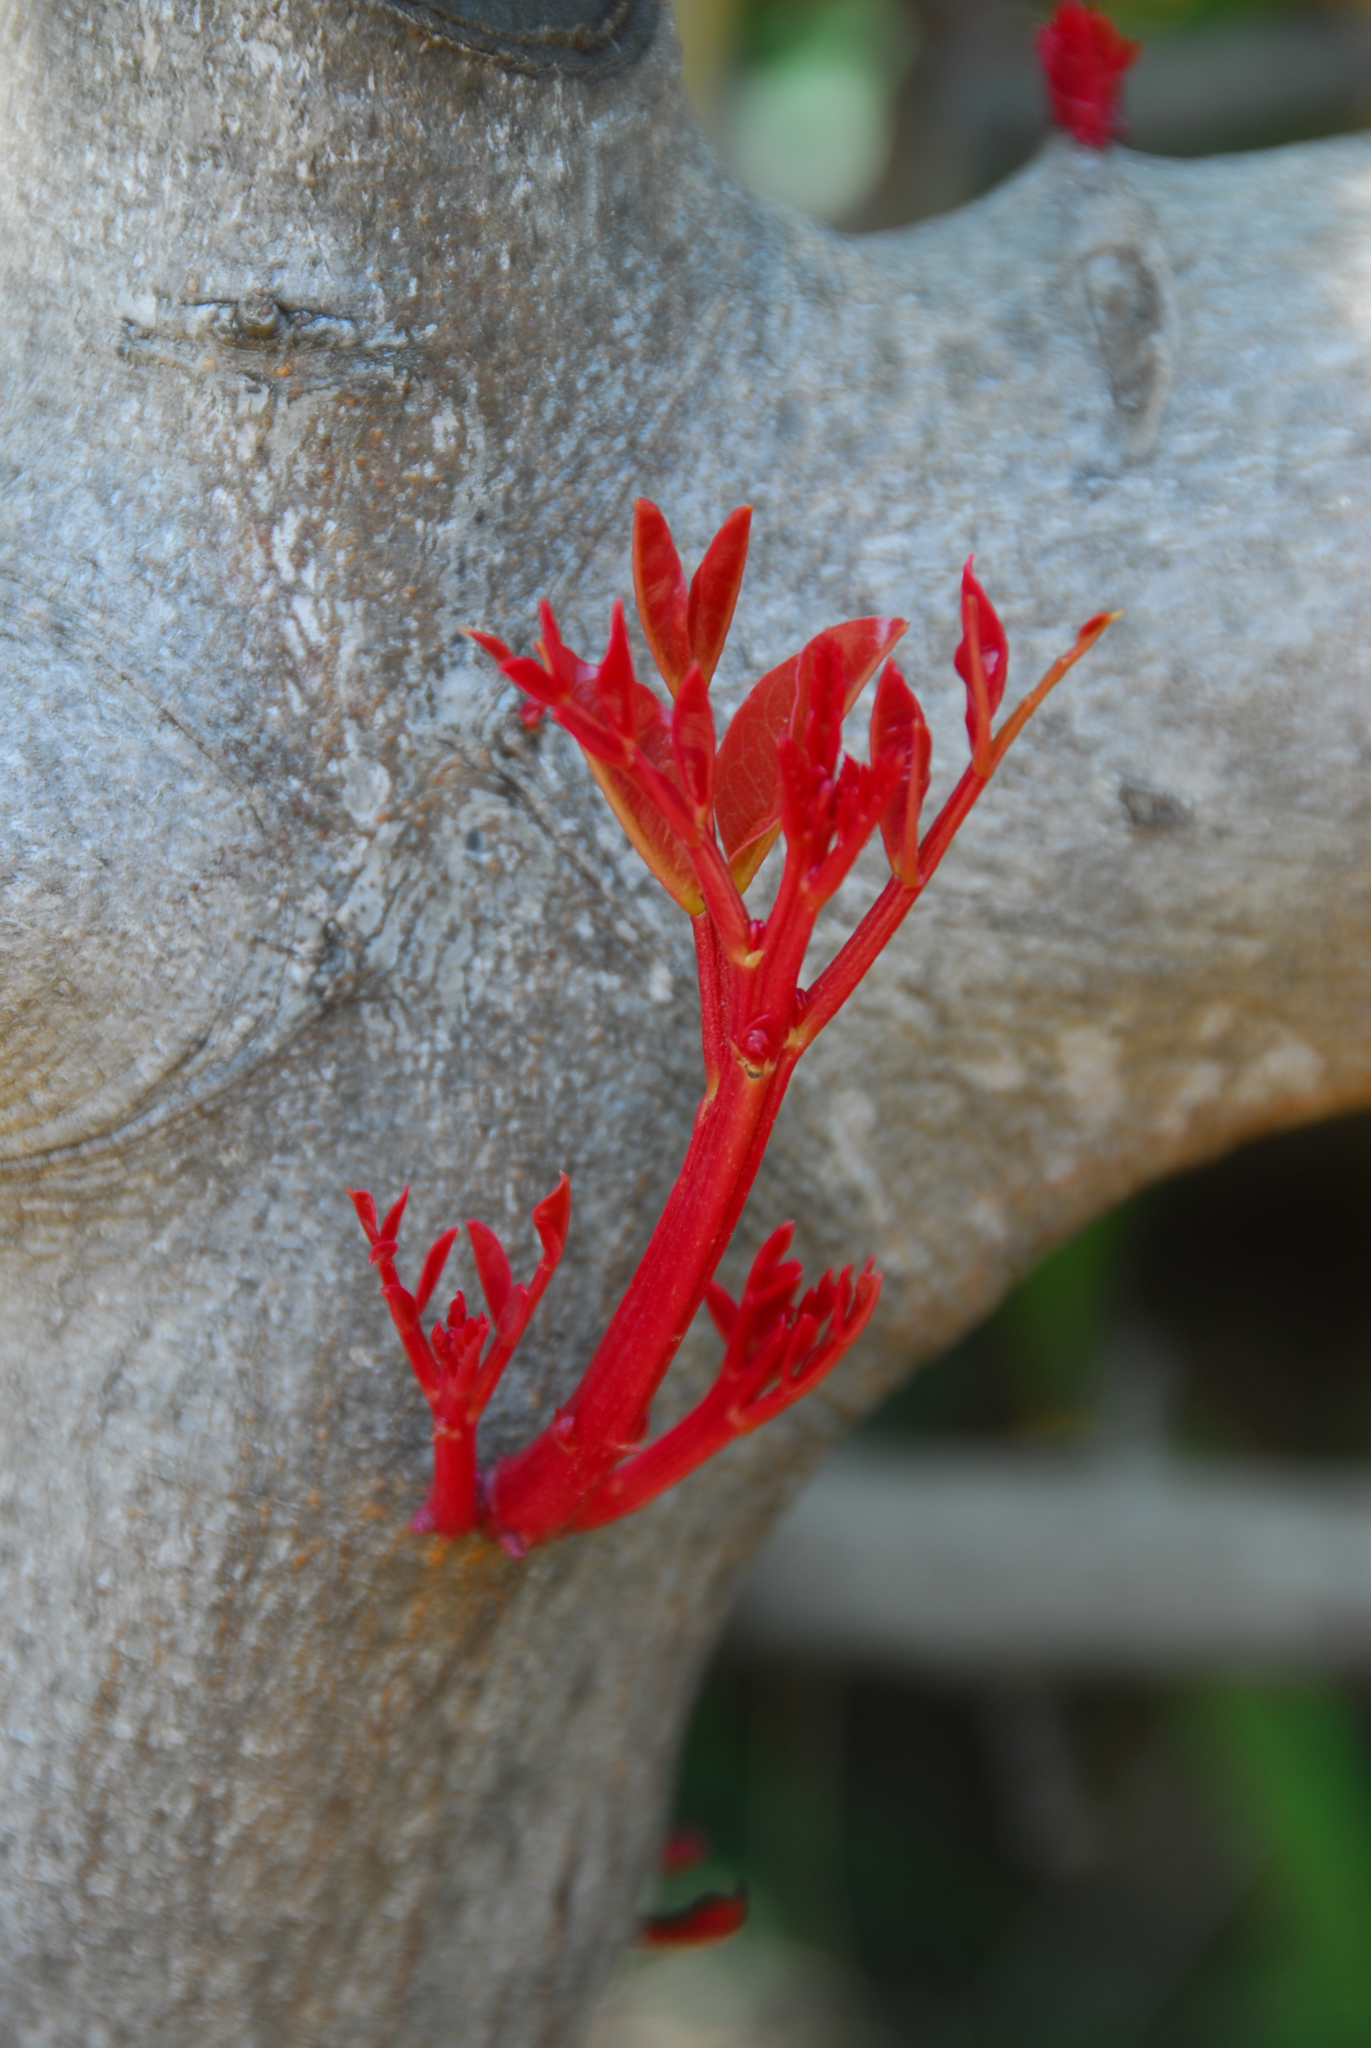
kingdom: Plantae
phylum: Tracheophyta
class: Magnoliopsida
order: Fabales
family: Fabaceae
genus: Ceratonia
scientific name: Ceratonia siliqua
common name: Carob
